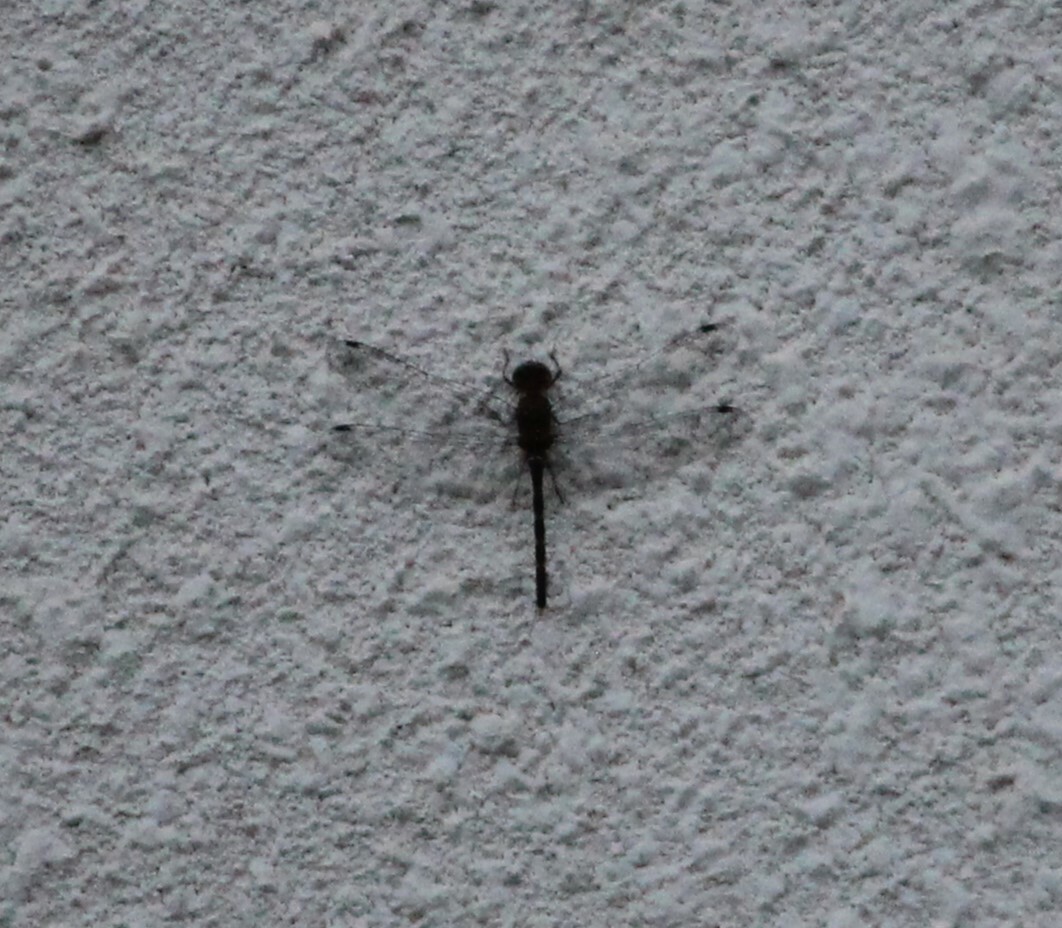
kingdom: Animalia
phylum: Arthropoda
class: Insecta
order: Odonata
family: Libellulidae
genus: Bradinopyga
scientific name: Bradinopyga geminata
